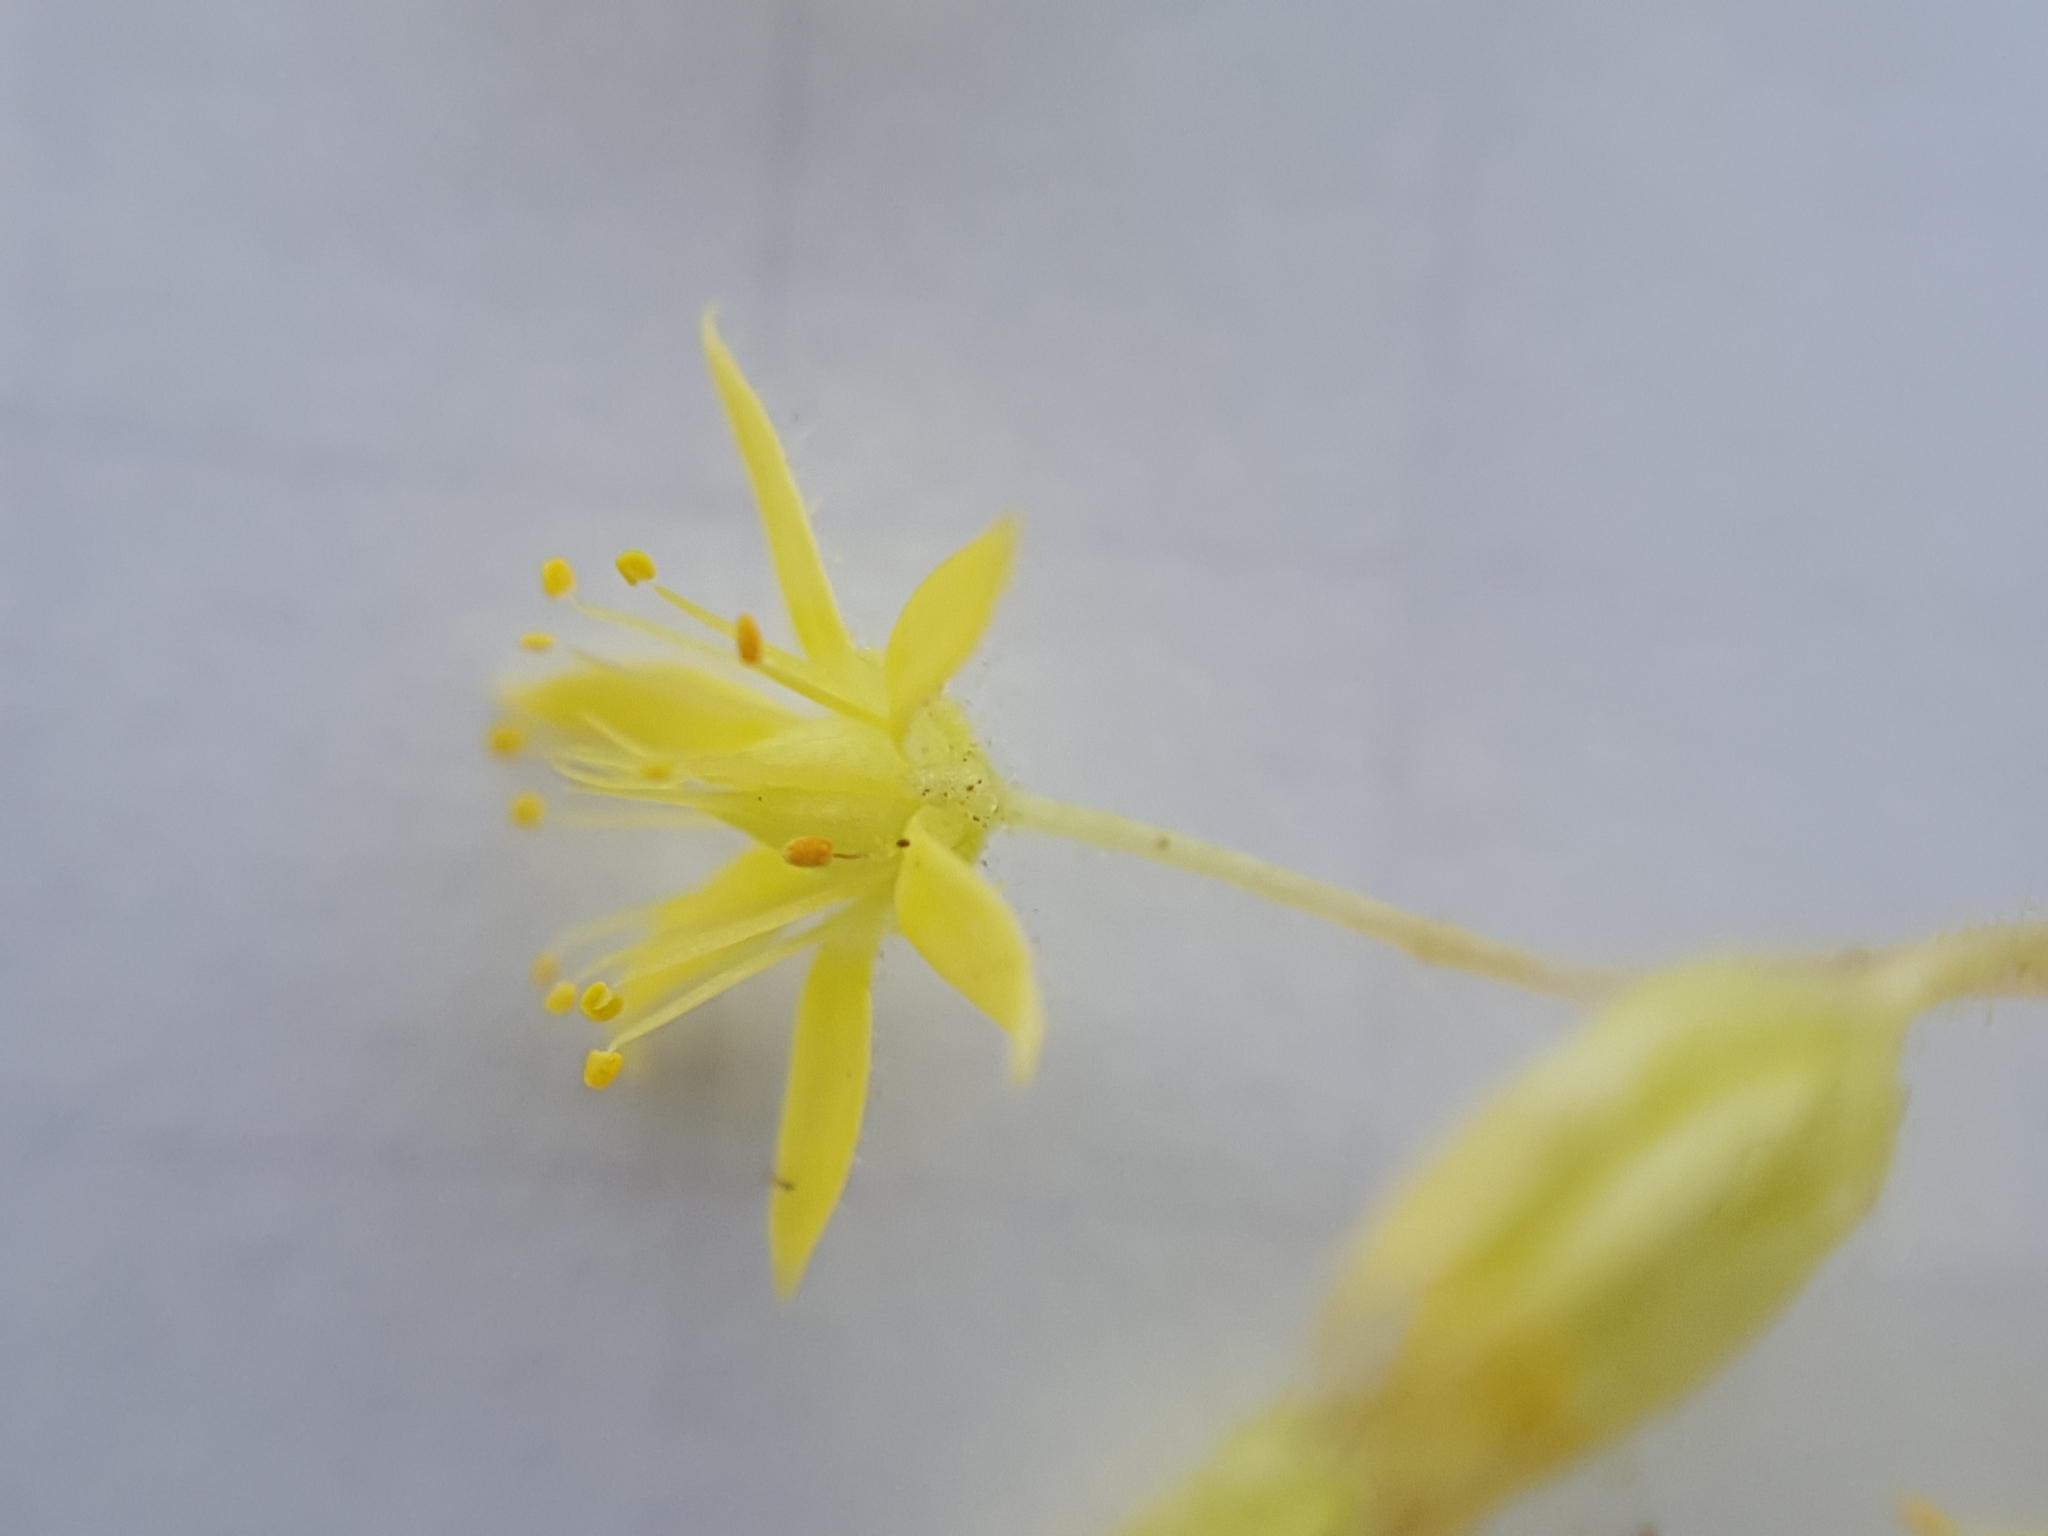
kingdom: Plantae
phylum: Tracheophyta
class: Magnoliopsida
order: Saxifragales
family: Crassulaceae
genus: Sedum
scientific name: Sedum pubescens
